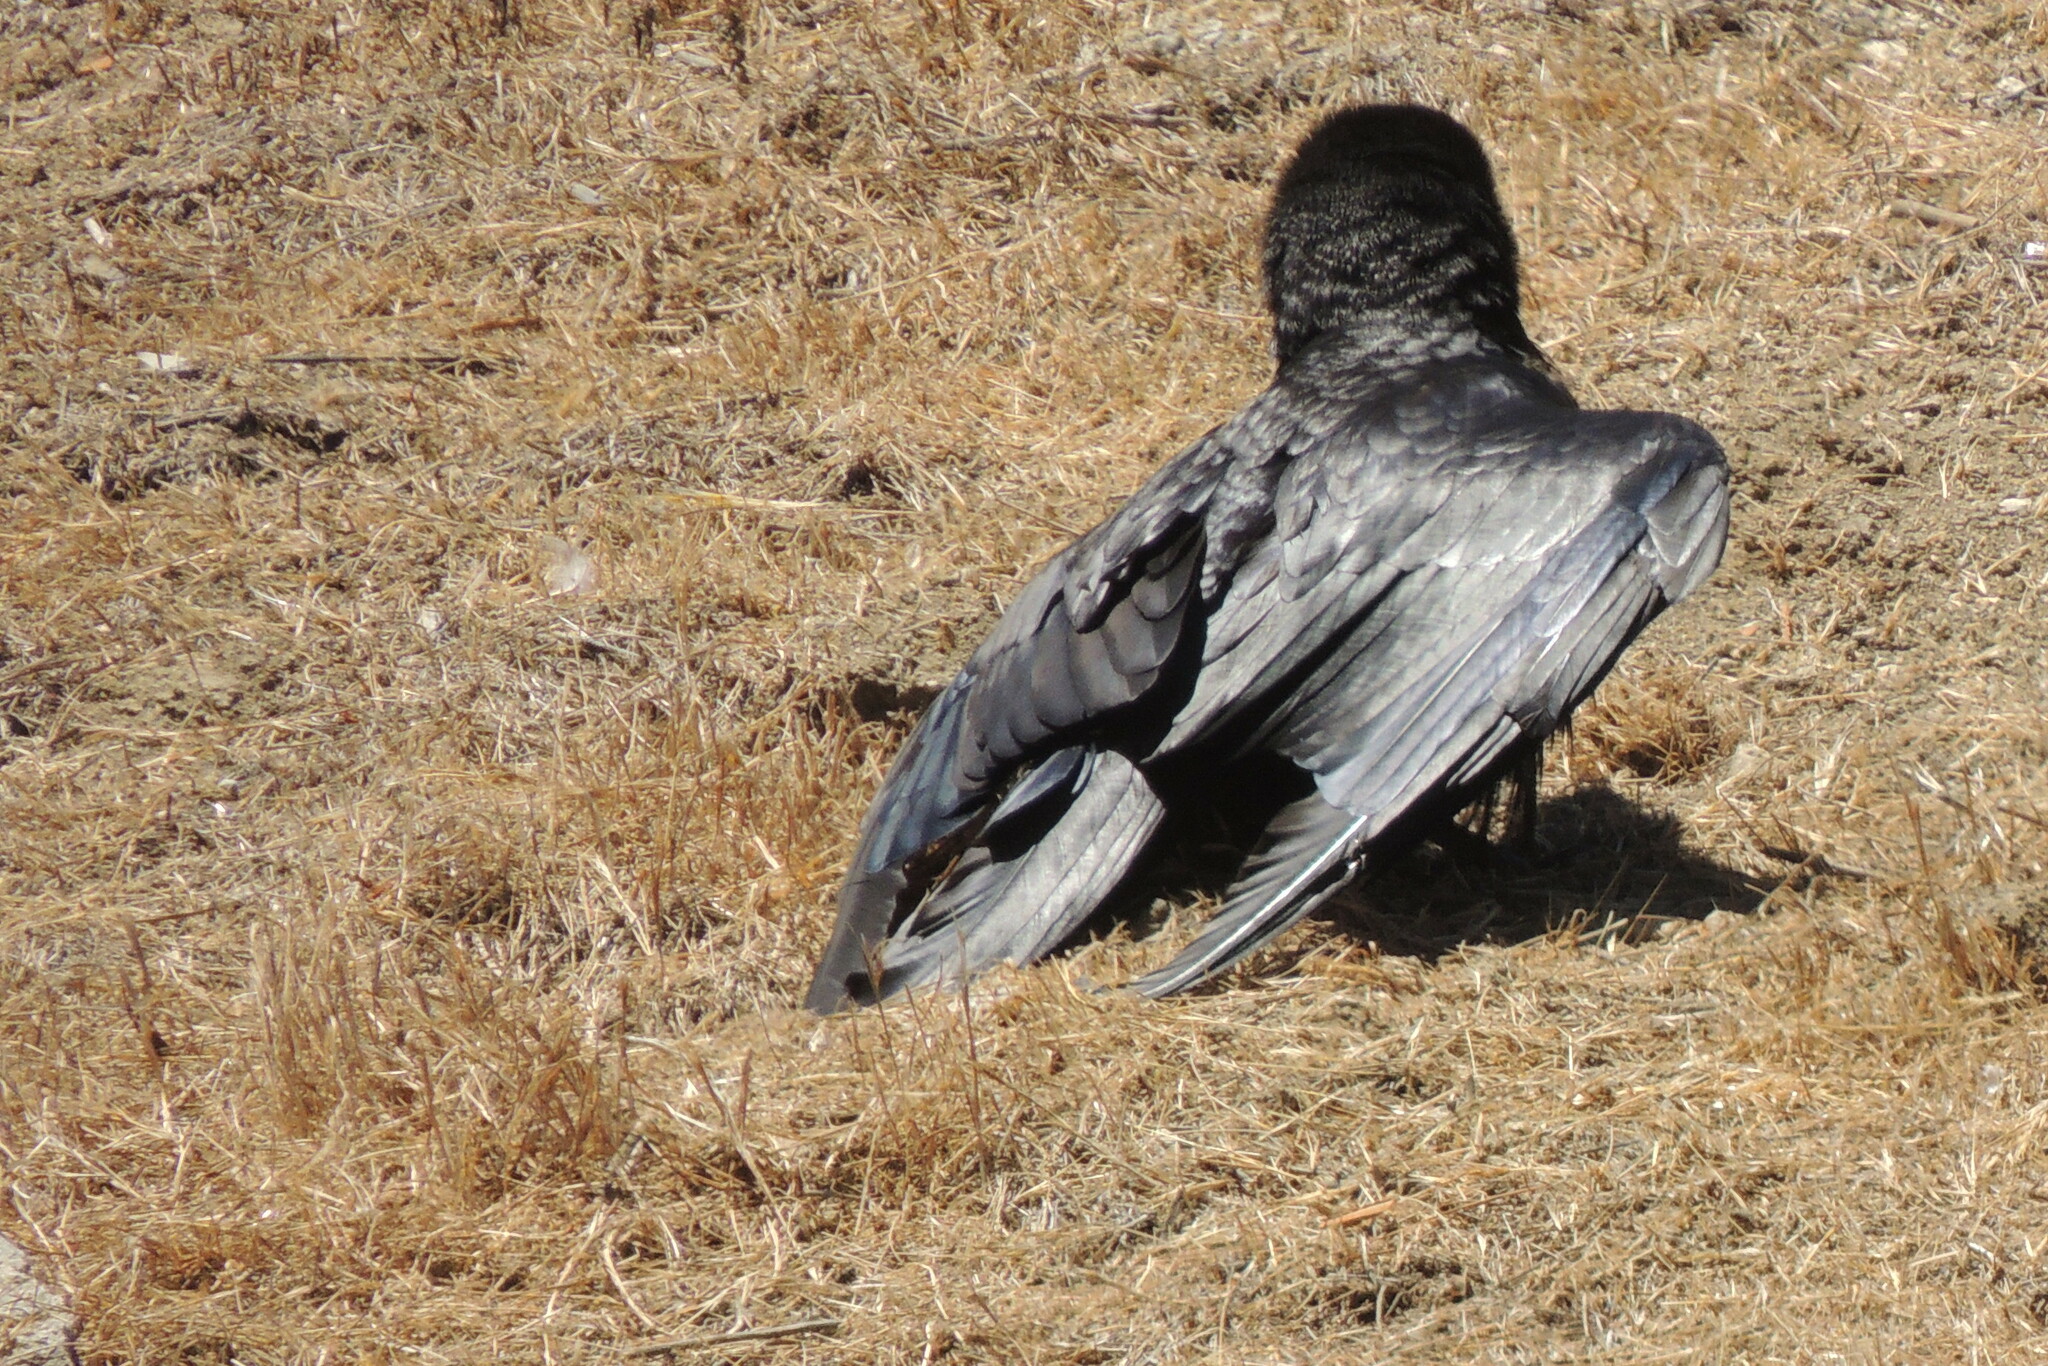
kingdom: Animalia
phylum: Chordata
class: Aves
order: Passeriformes
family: Corvidae
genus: Corvus
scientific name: Corvus corax
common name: Common raven
